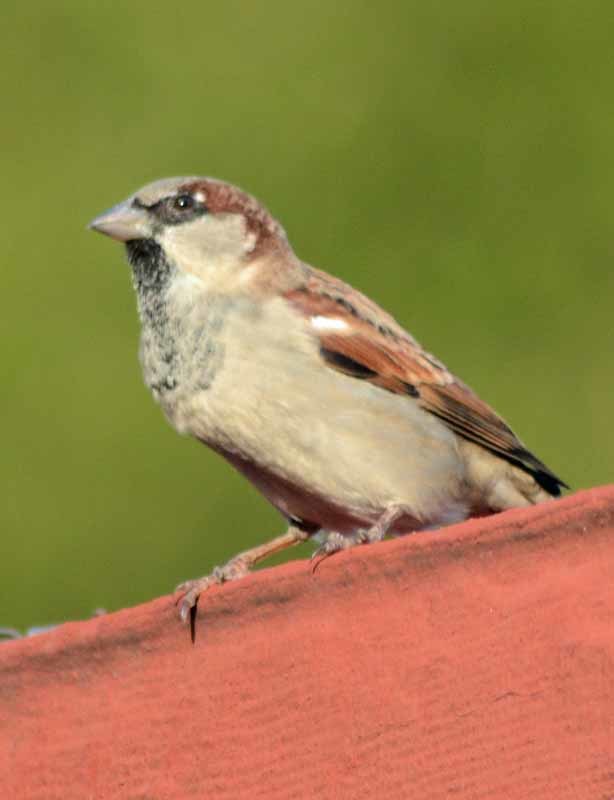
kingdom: Animalia
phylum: Chordata
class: Aves
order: Passeriformes
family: Passeridae
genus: Passer
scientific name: Passer domesticus
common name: House sparrow
